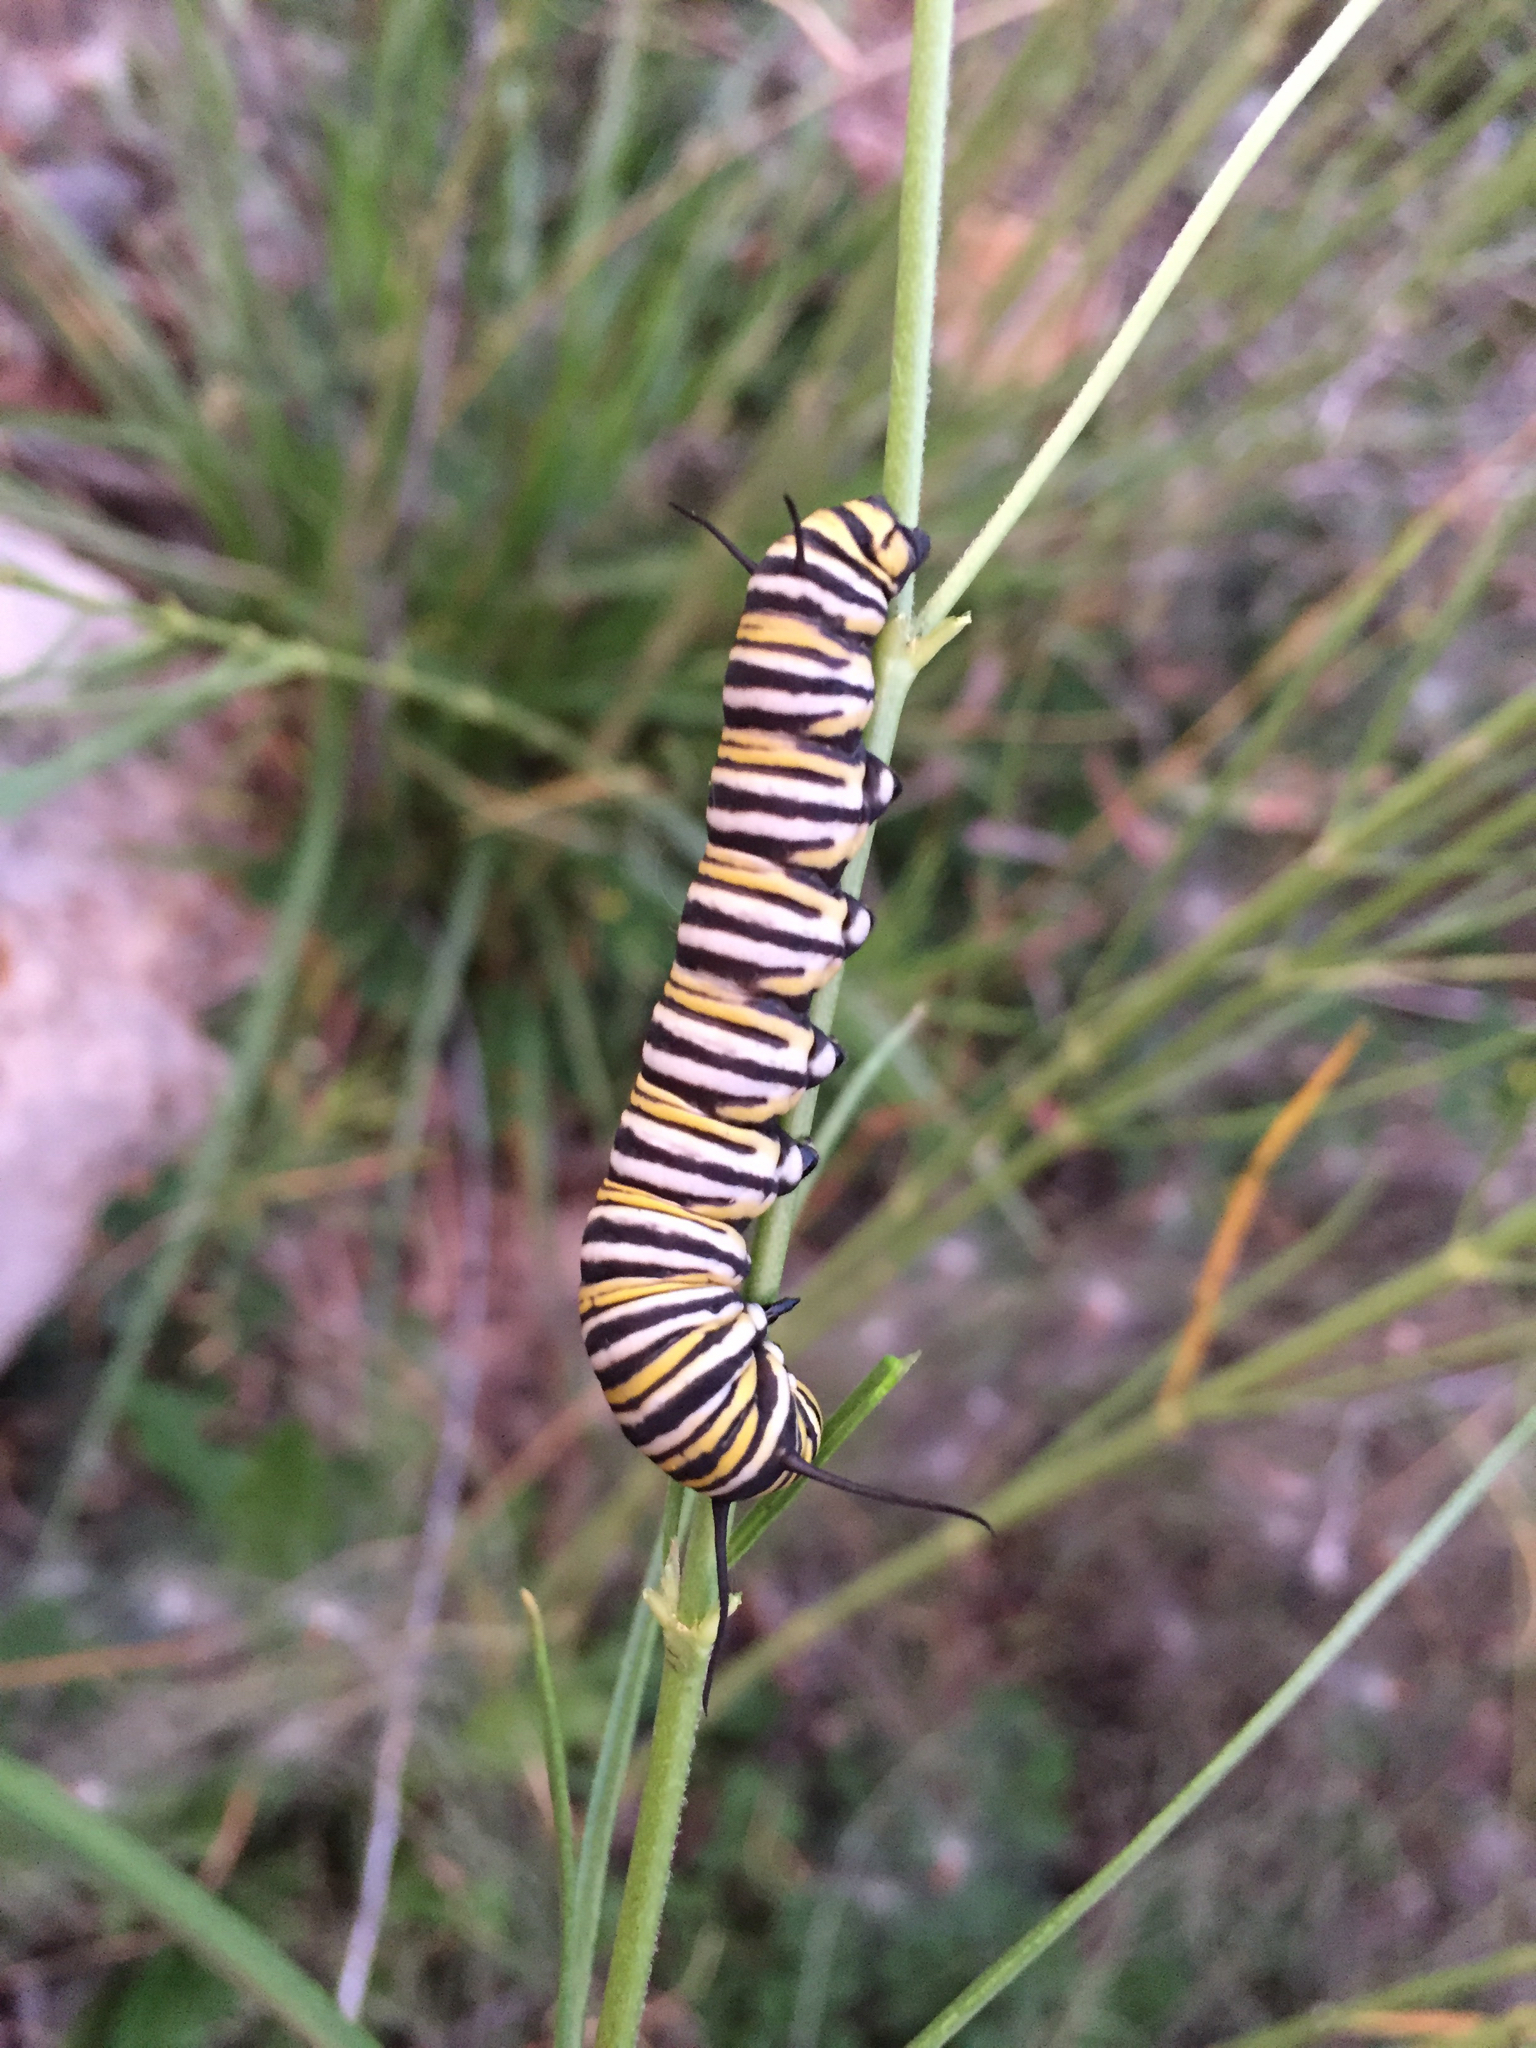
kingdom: Animalia
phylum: Arthropoda
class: Insecta
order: Lepidoptera
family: Nymphalidae
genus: Danaus
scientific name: Danaus plexippus
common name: Monarch
